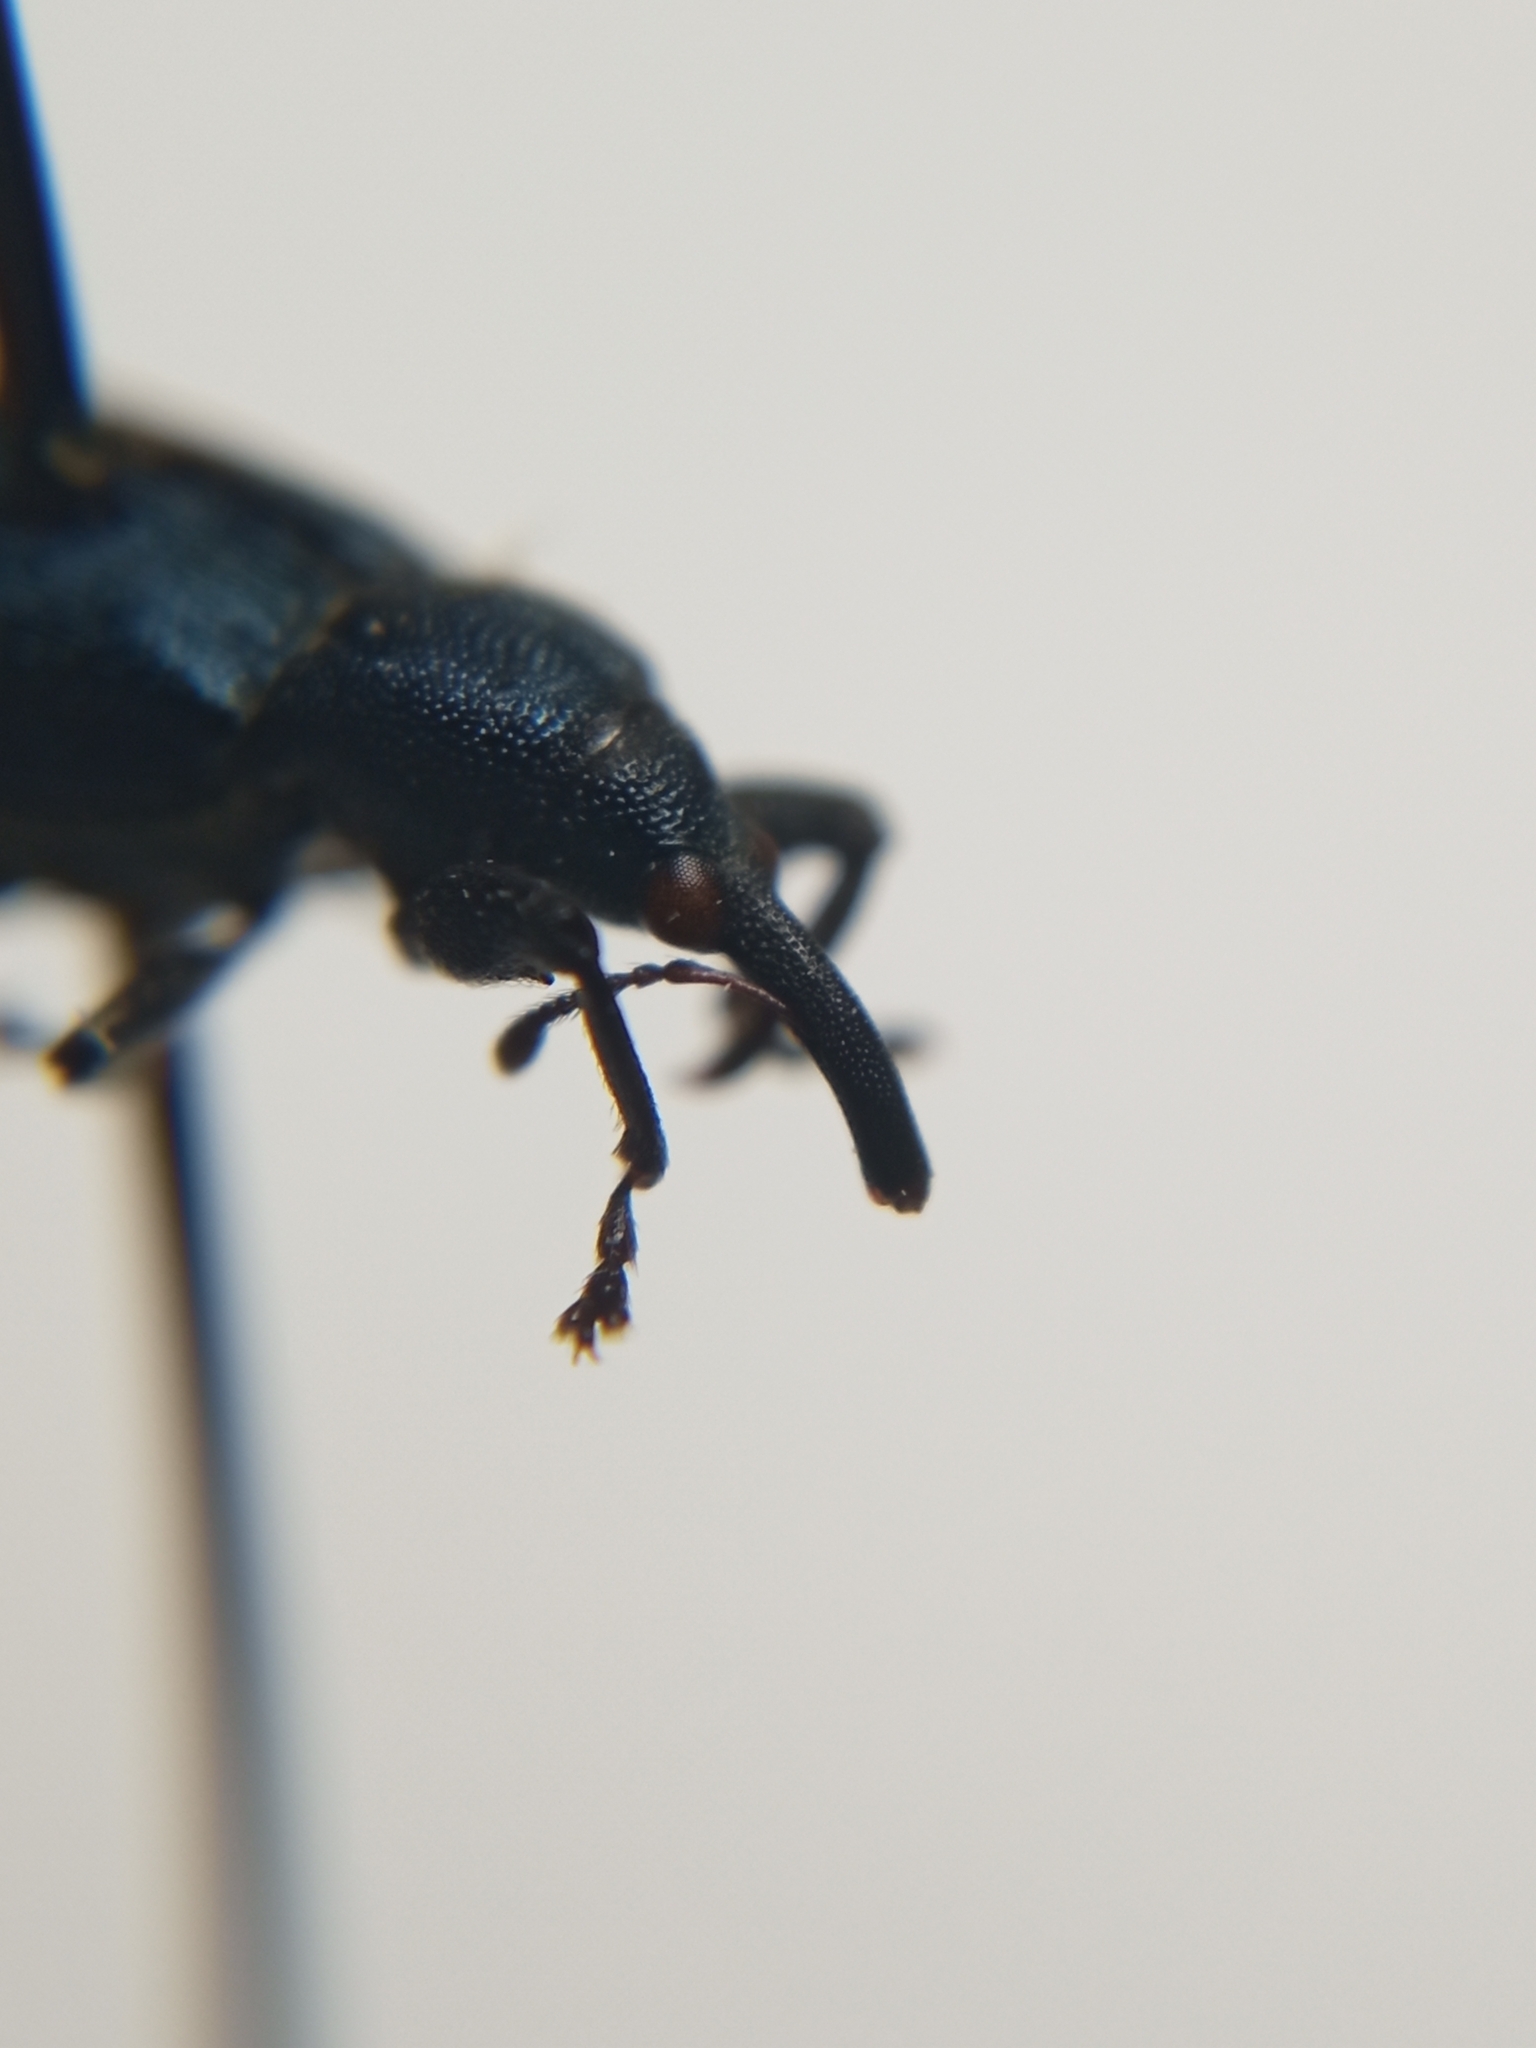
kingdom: Animalia
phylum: Arthropoda
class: Insecta
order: Coleoptera
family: Curculionidae
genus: Magdalis
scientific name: Magdalis phlegmatica
